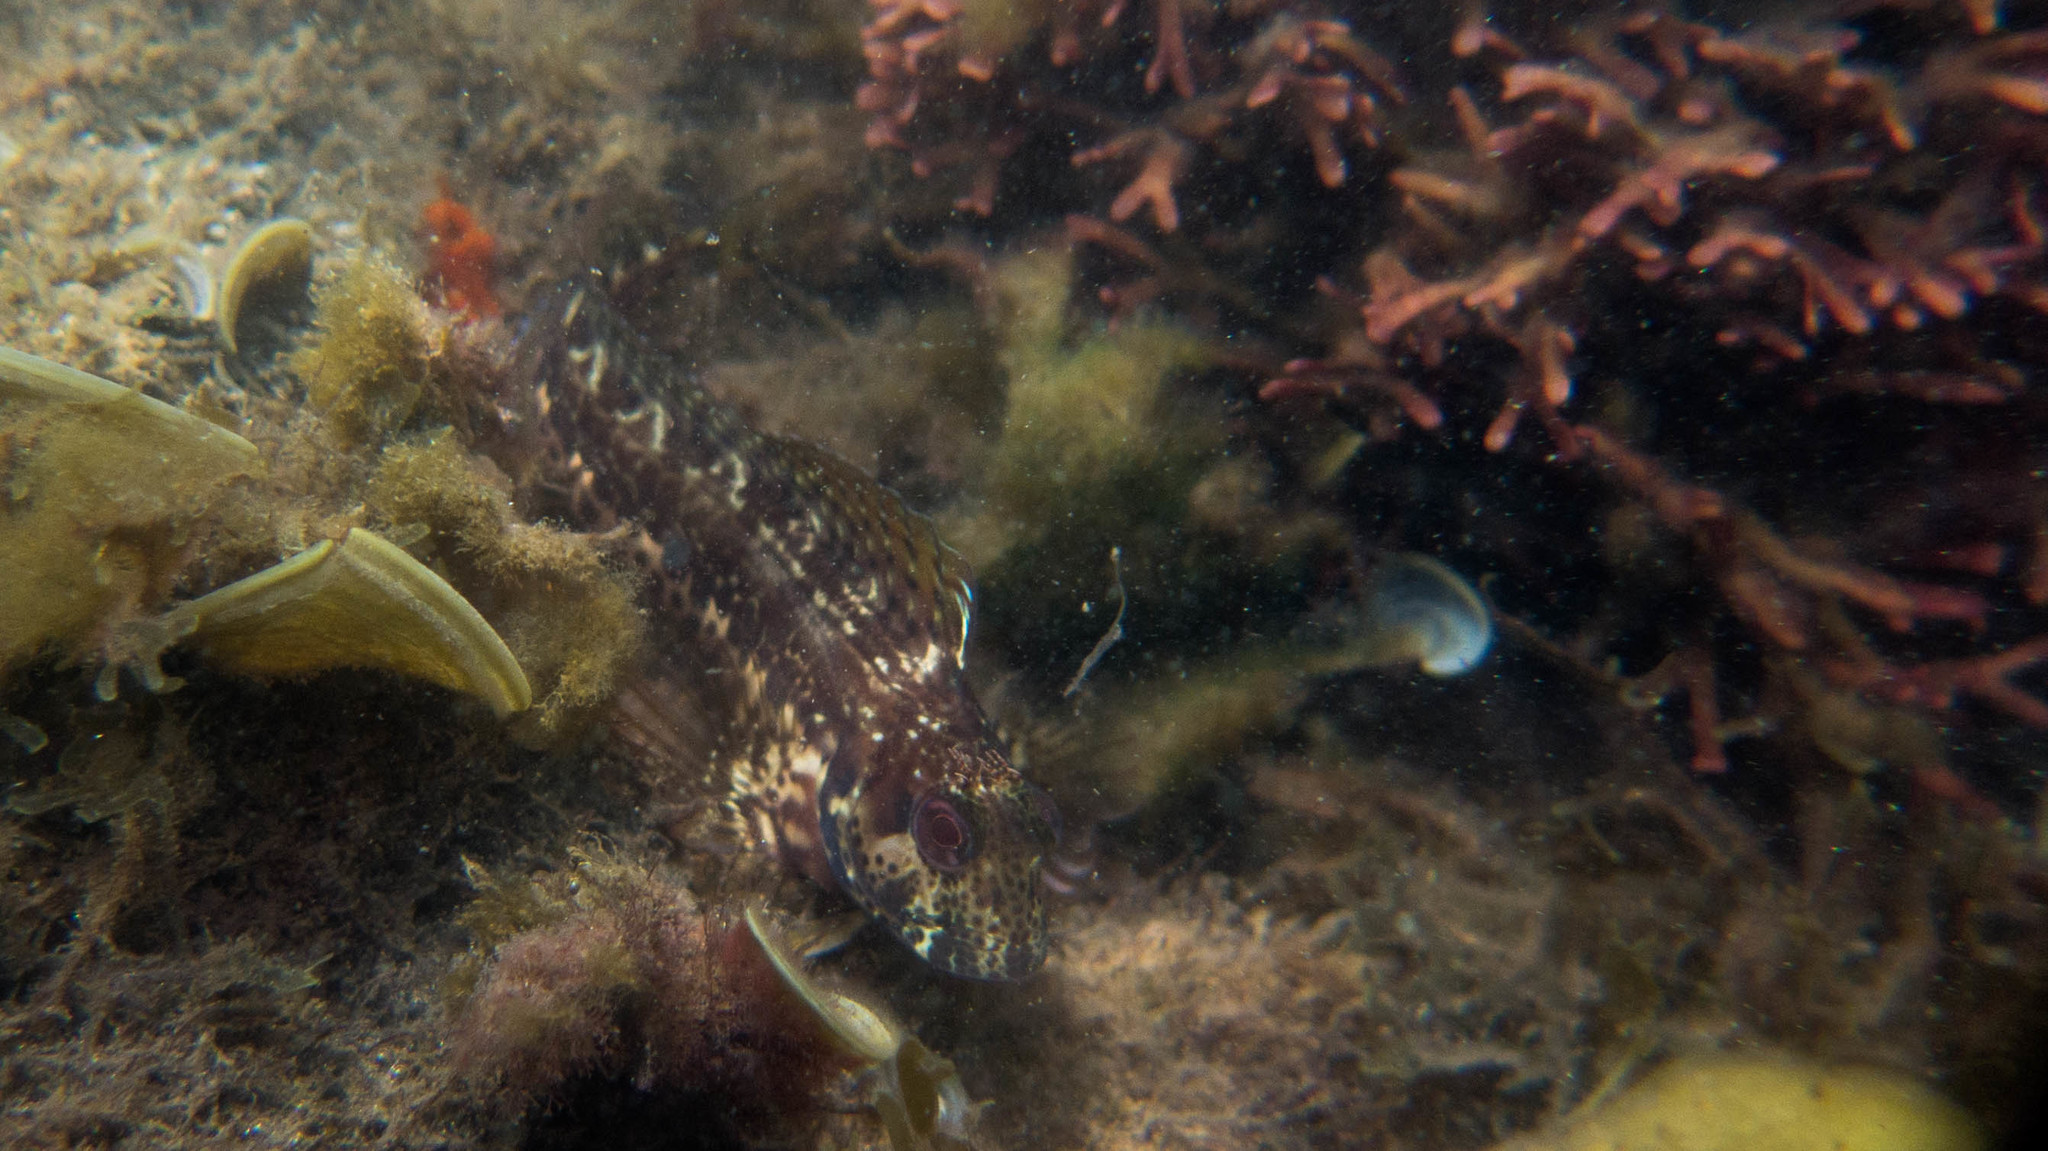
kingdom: Animalia
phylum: Chordata
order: Perciformes
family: Blenniidae
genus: Parablennius
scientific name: Parablennius pilicornis
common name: Ringneck blenny
